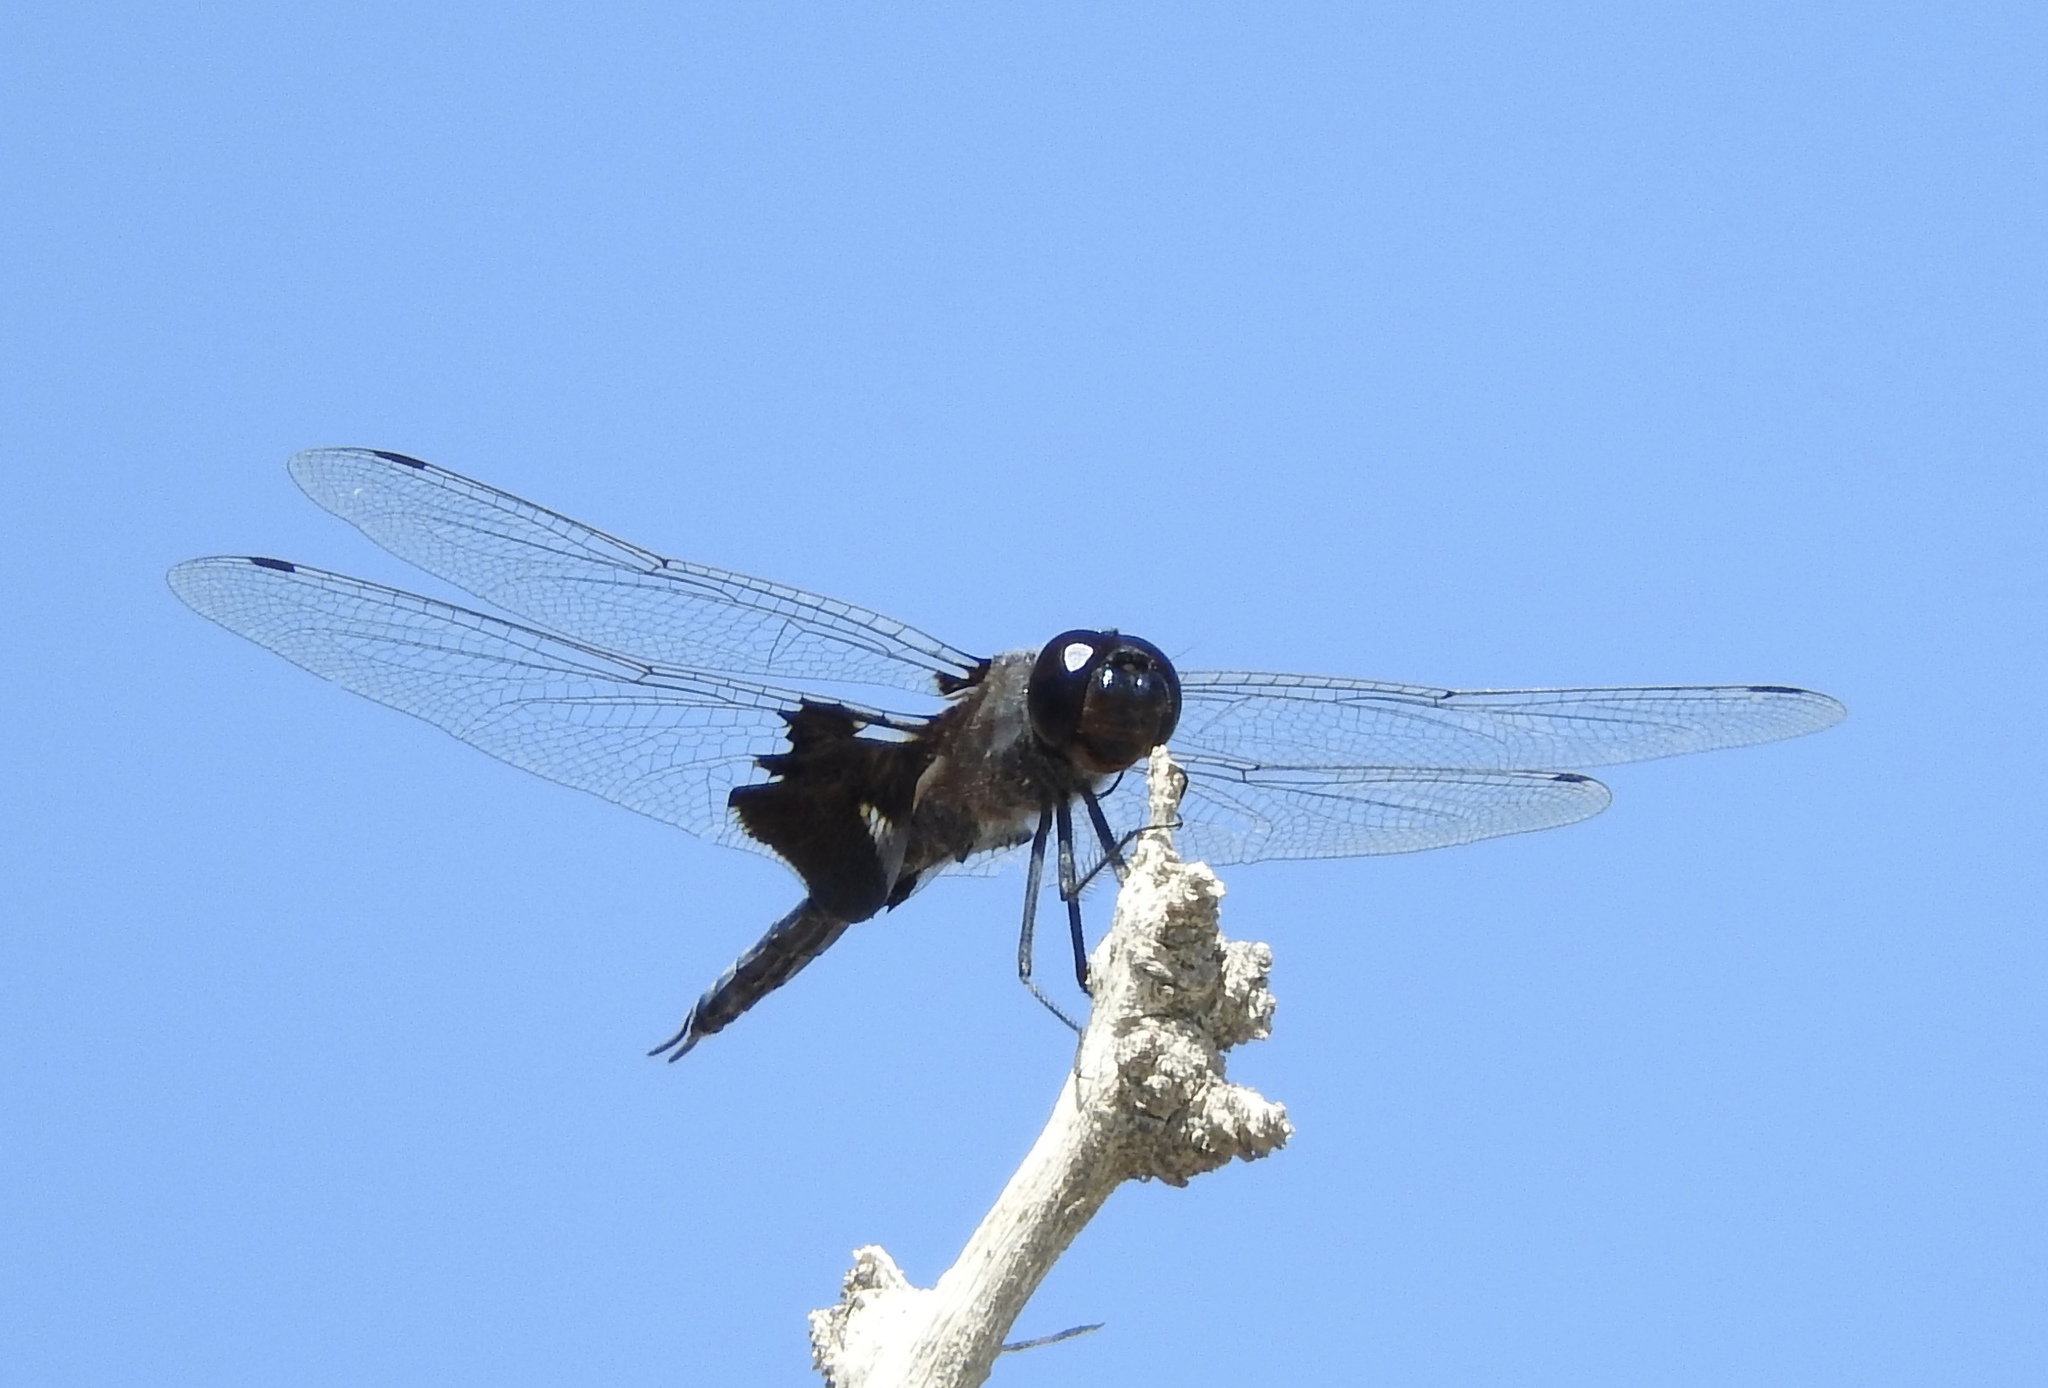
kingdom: Animalia
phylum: Arthropoda
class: Insecta
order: Odonata
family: Libellulidae
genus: Tramea
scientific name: Tramea lacerata
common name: Black saddlebags
